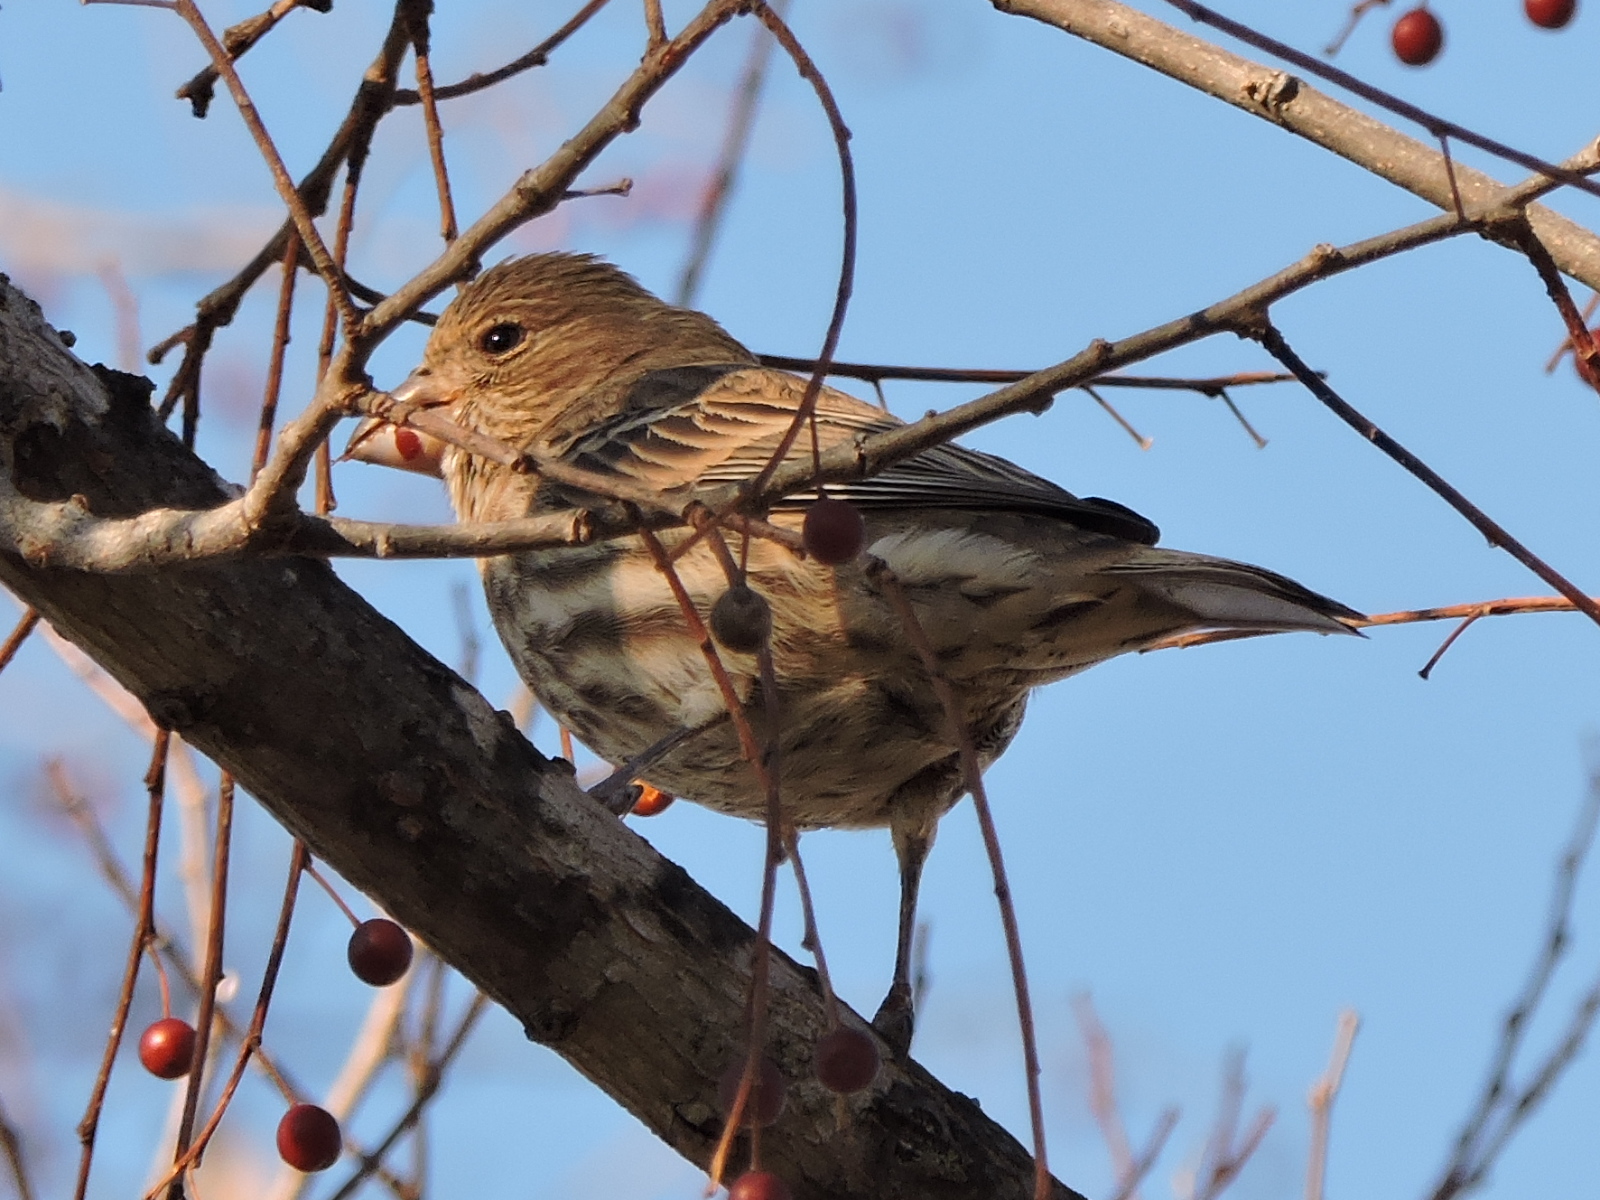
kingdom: Animalia
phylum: Chordata
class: Aves
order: Passeriformes
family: Fringillidae
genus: Haemorhous
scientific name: Haemorhous mexicanus
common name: House finch
